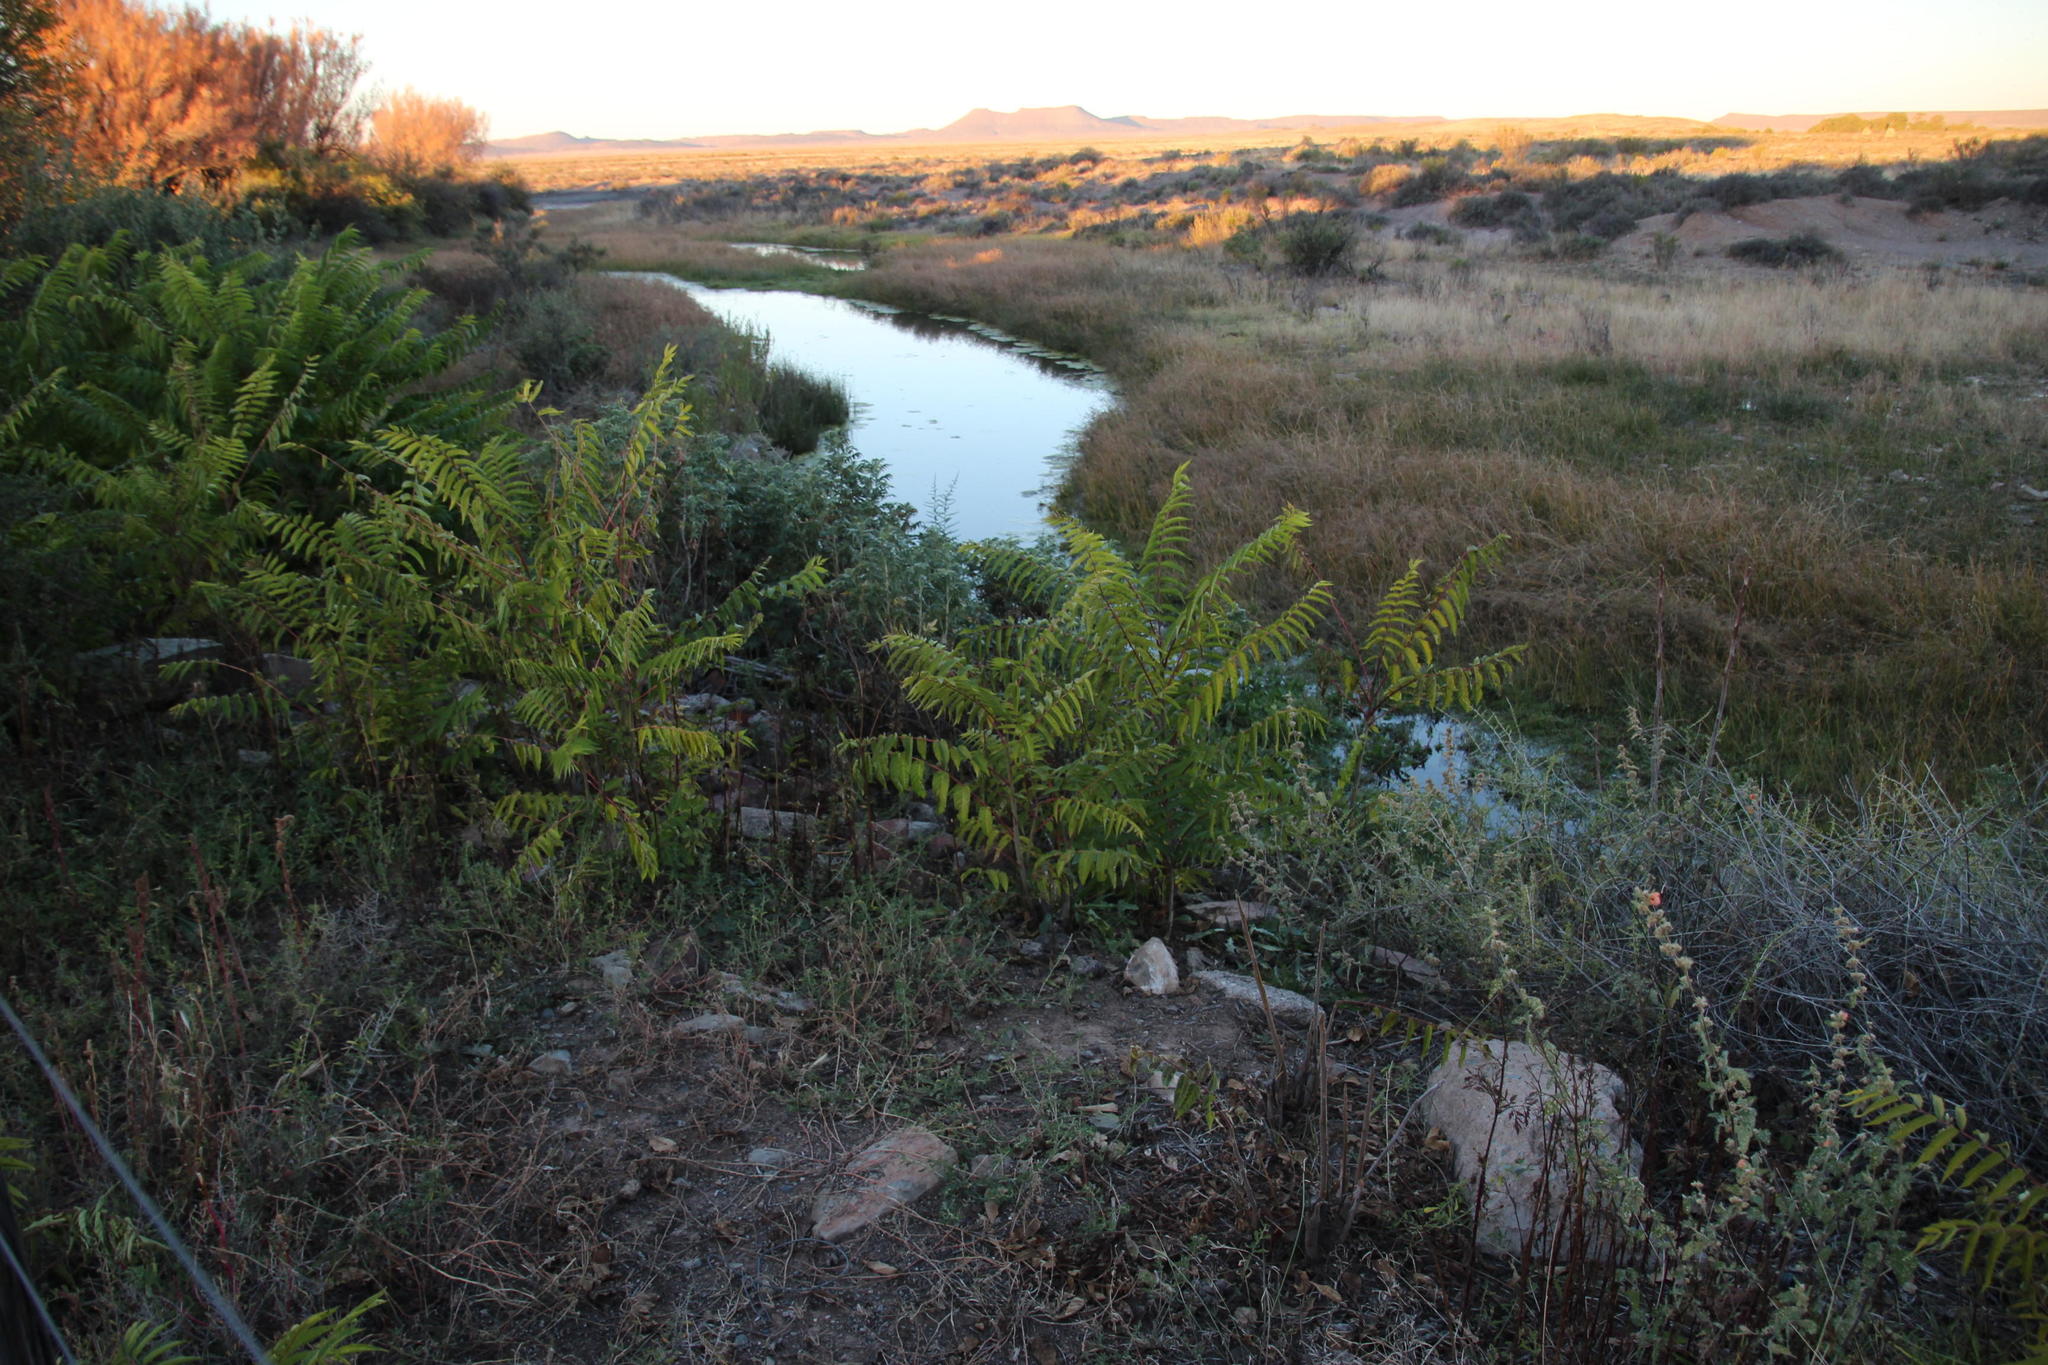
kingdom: Plantae
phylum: Tracheophyta
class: Magnoliopsida
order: Sapindales
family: Simaroubaceae
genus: Ailanthus
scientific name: Ailanthus altissima
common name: Tree-of-heaven
